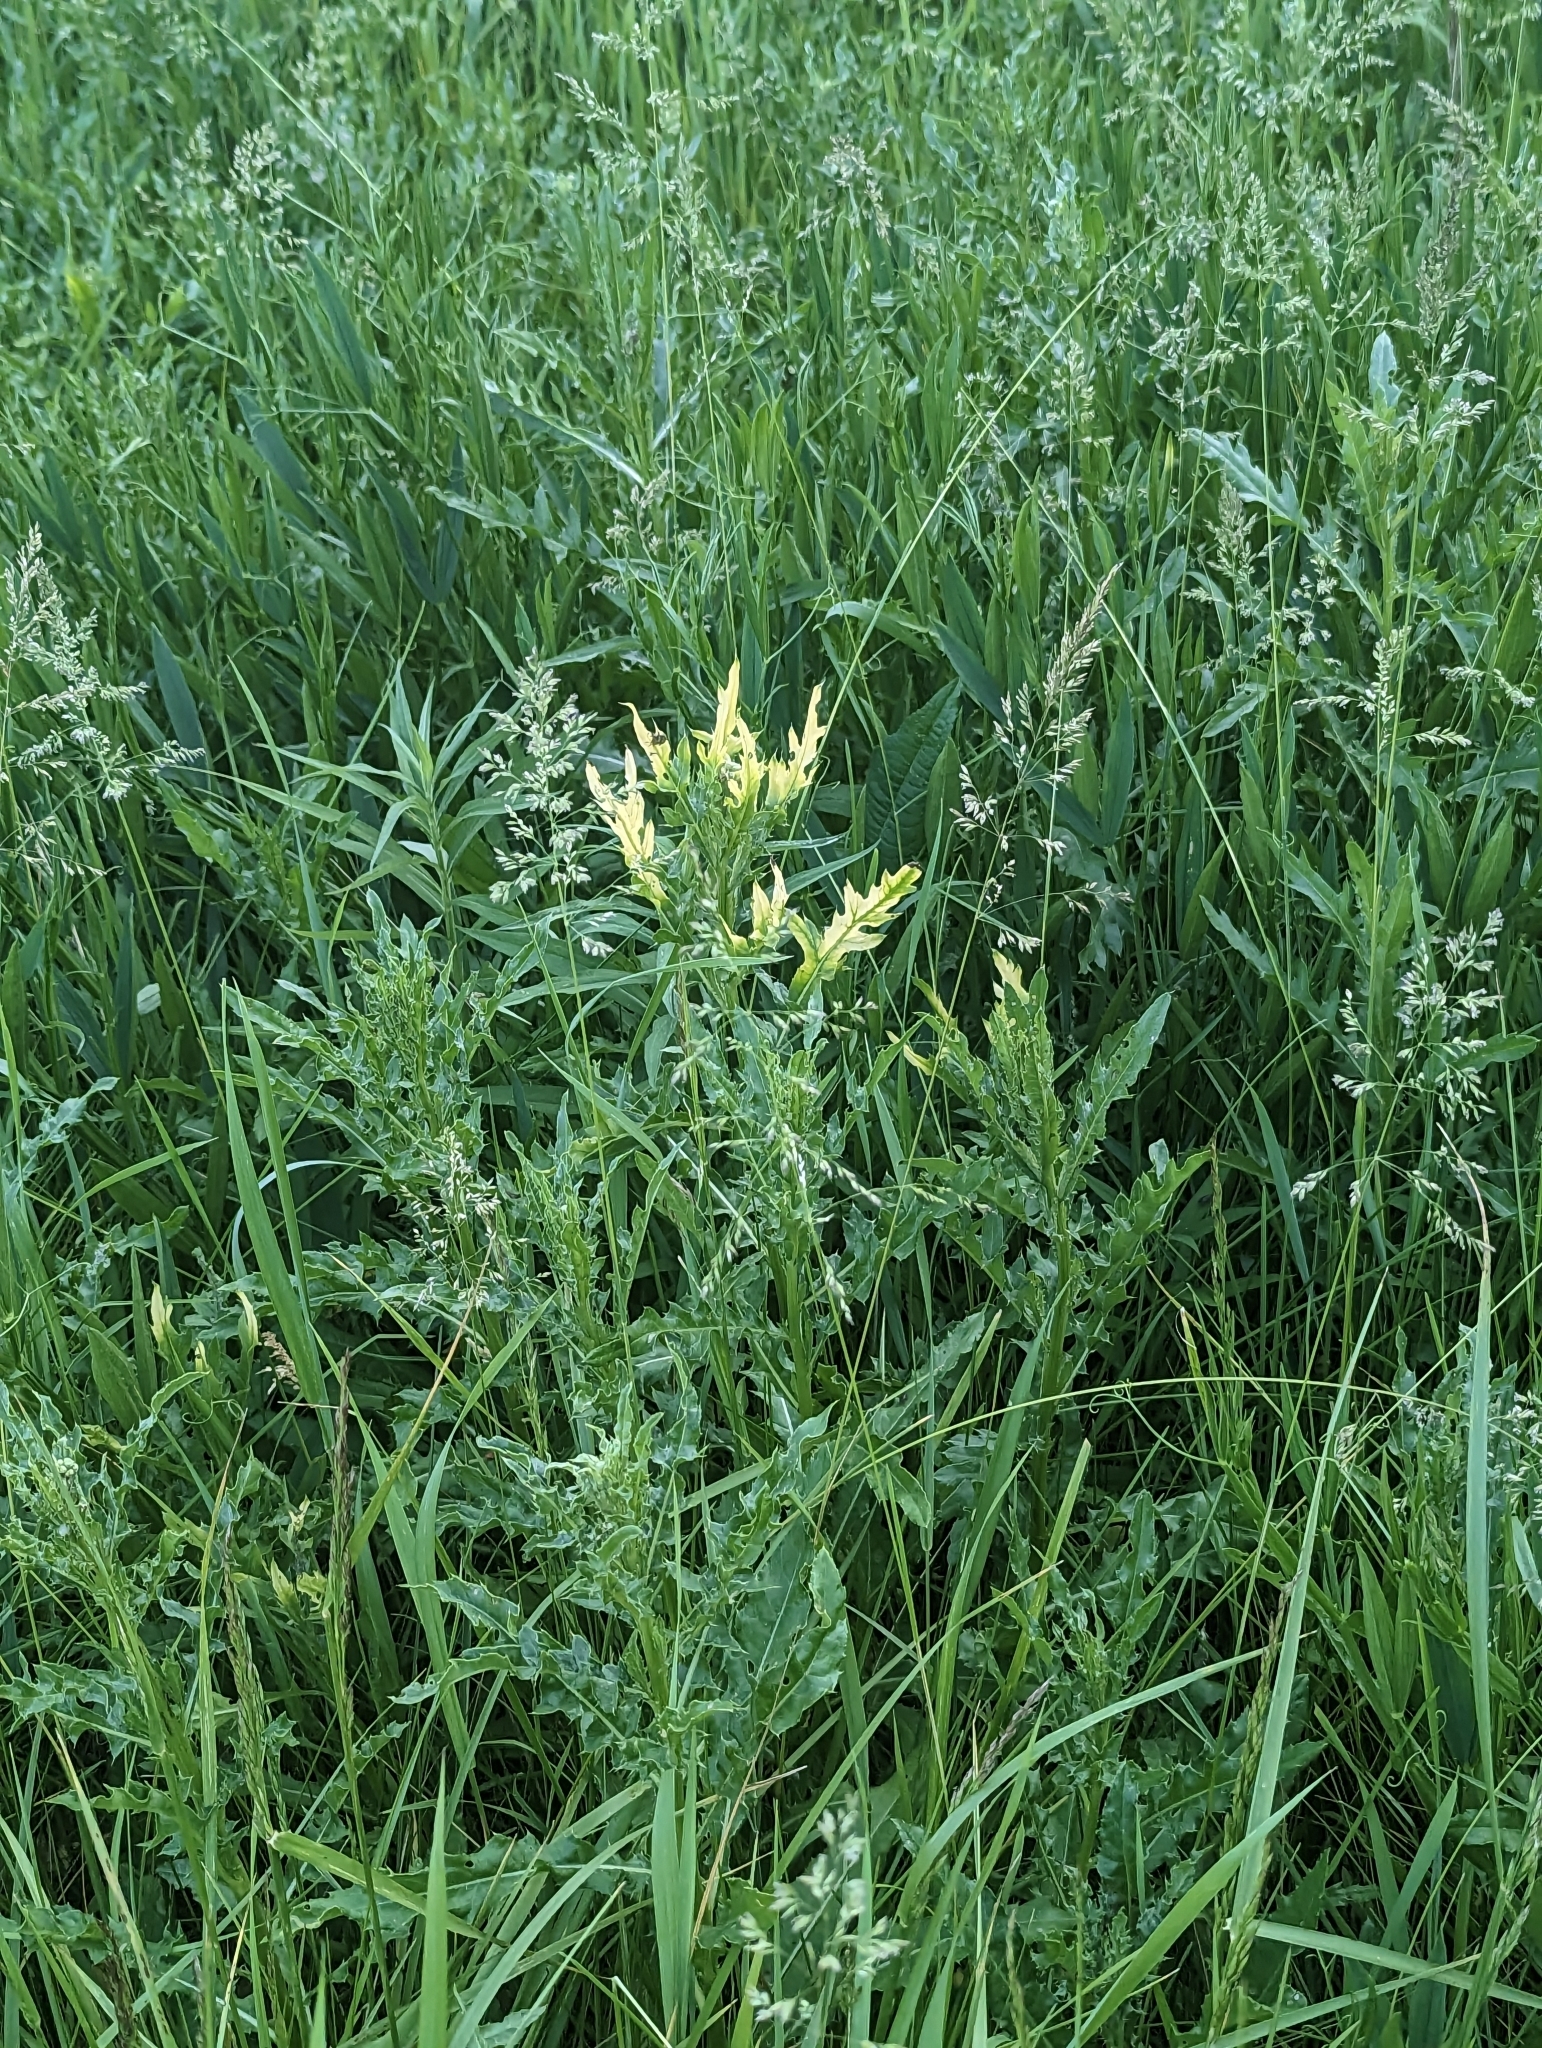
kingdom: Bacteria
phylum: Proteobacteria
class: Gammaproteobacteria
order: Pseudomonadales
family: Pseudomonadaceae
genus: Pseudomonas
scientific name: Pseudomonas syringae
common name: Bacterial speck
